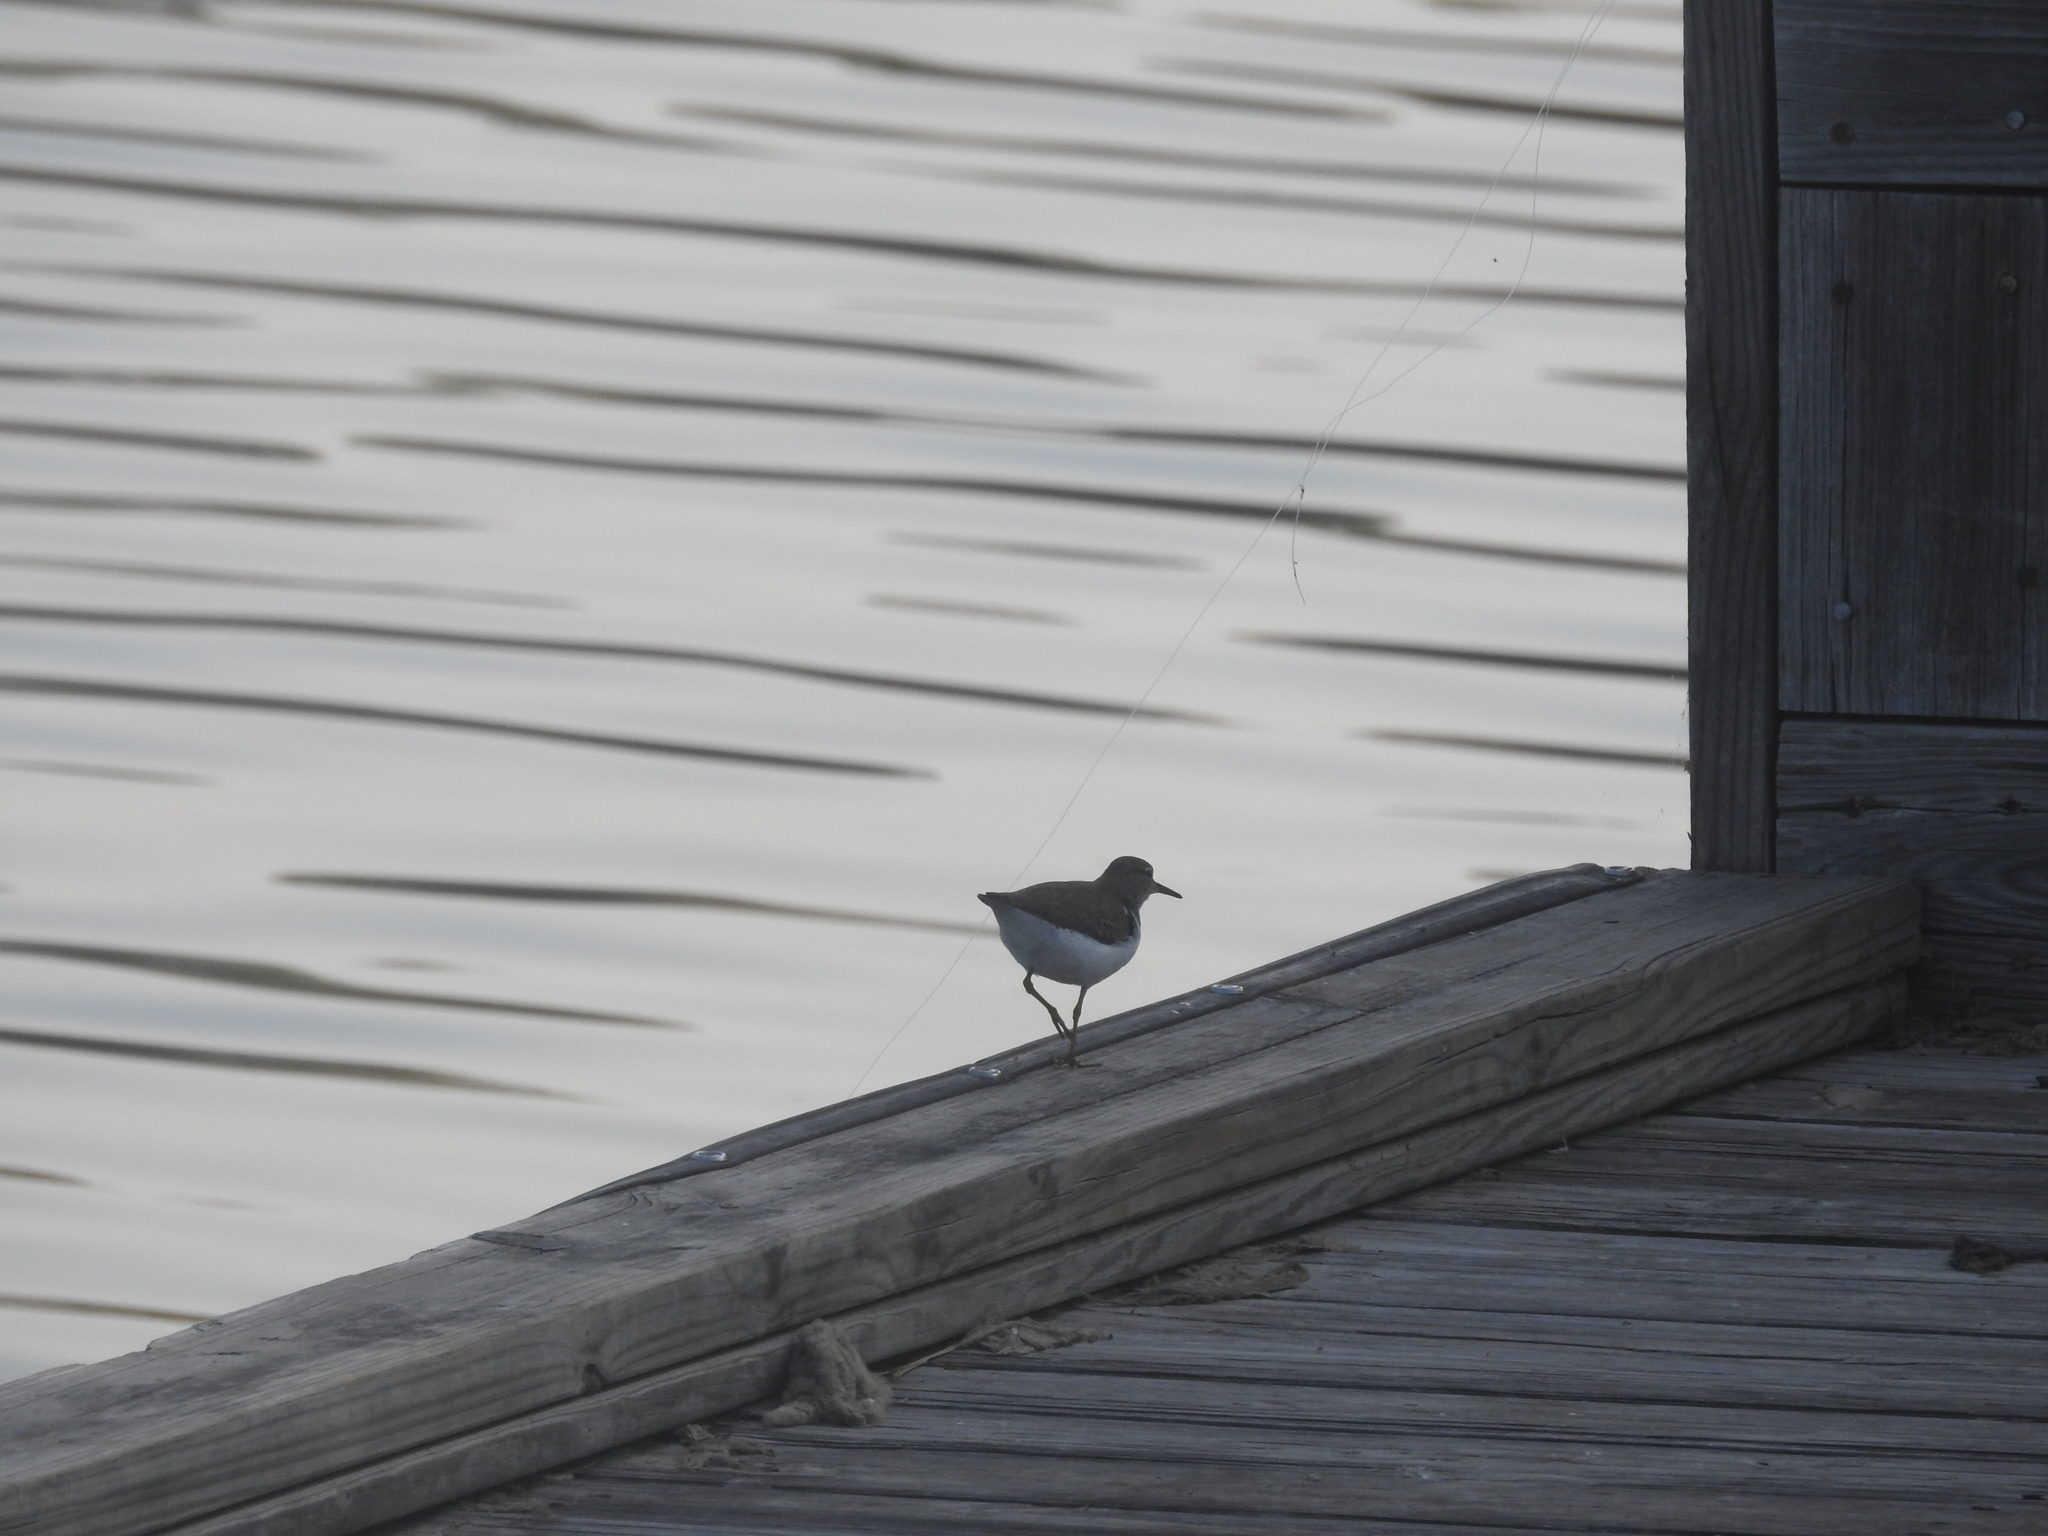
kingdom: Animalia
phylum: Chordata
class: Aves
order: Charadriiformes
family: Scolopacidae
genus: Actitis
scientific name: Actitis macularius
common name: Spotted sandpiper
